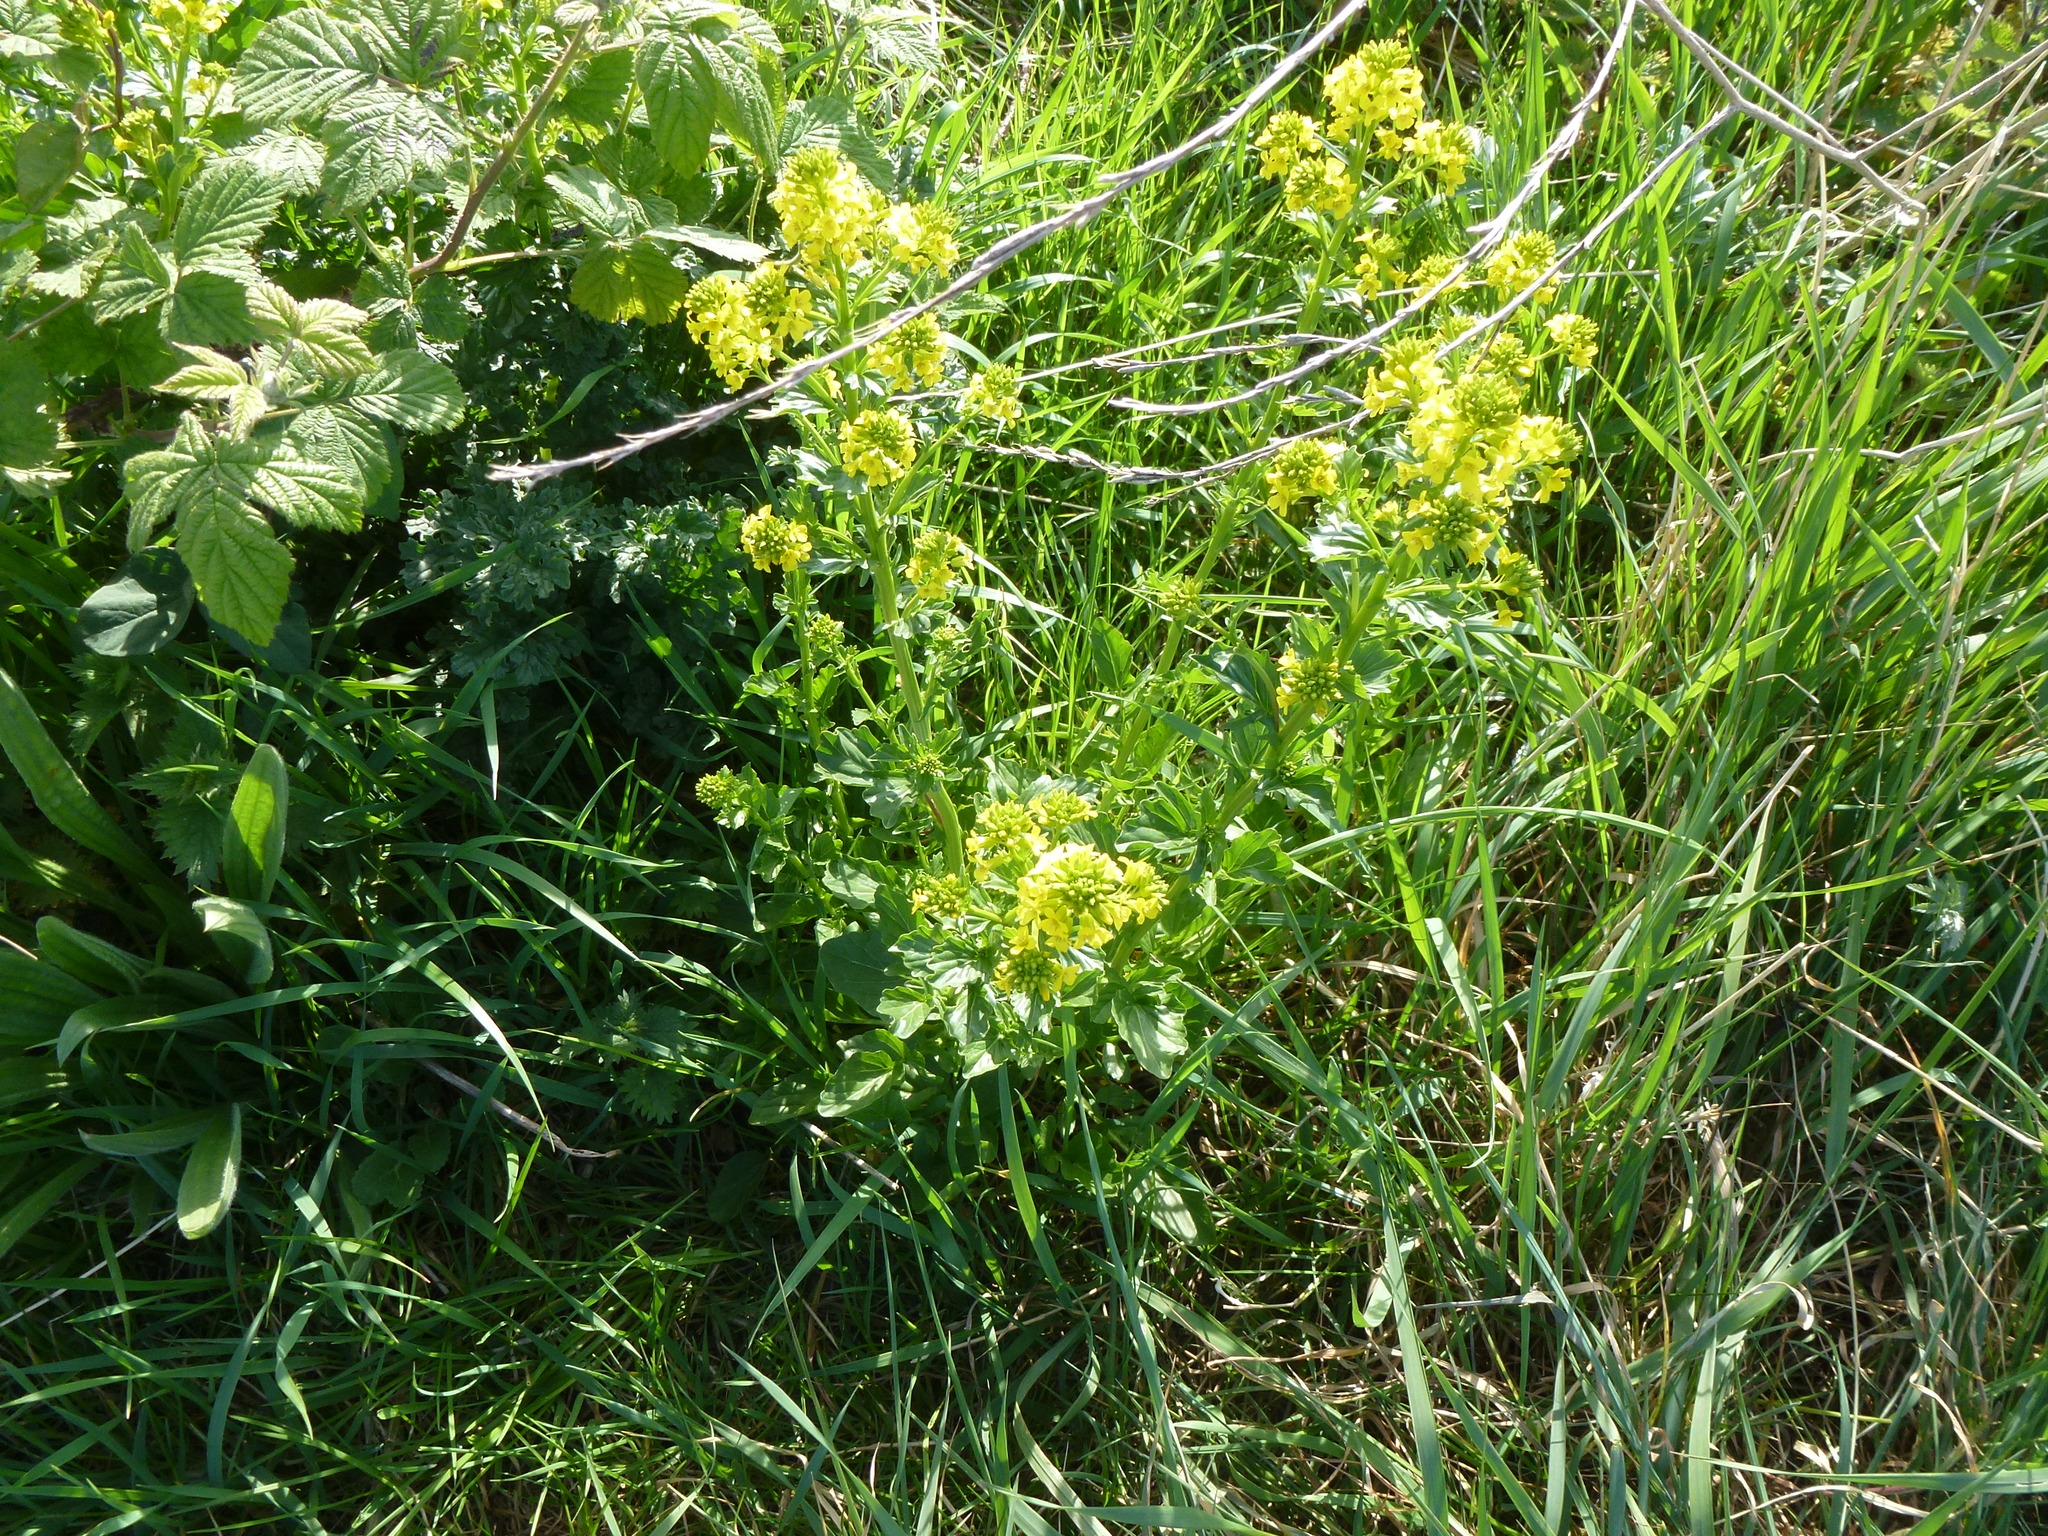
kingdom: Plantae
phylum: Tracheophyta
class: Magnoliopsida
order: Brassicales
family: Brassicaceae
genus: Barbarea
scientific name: Barbarea vulgaris
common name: Cressy-greens
